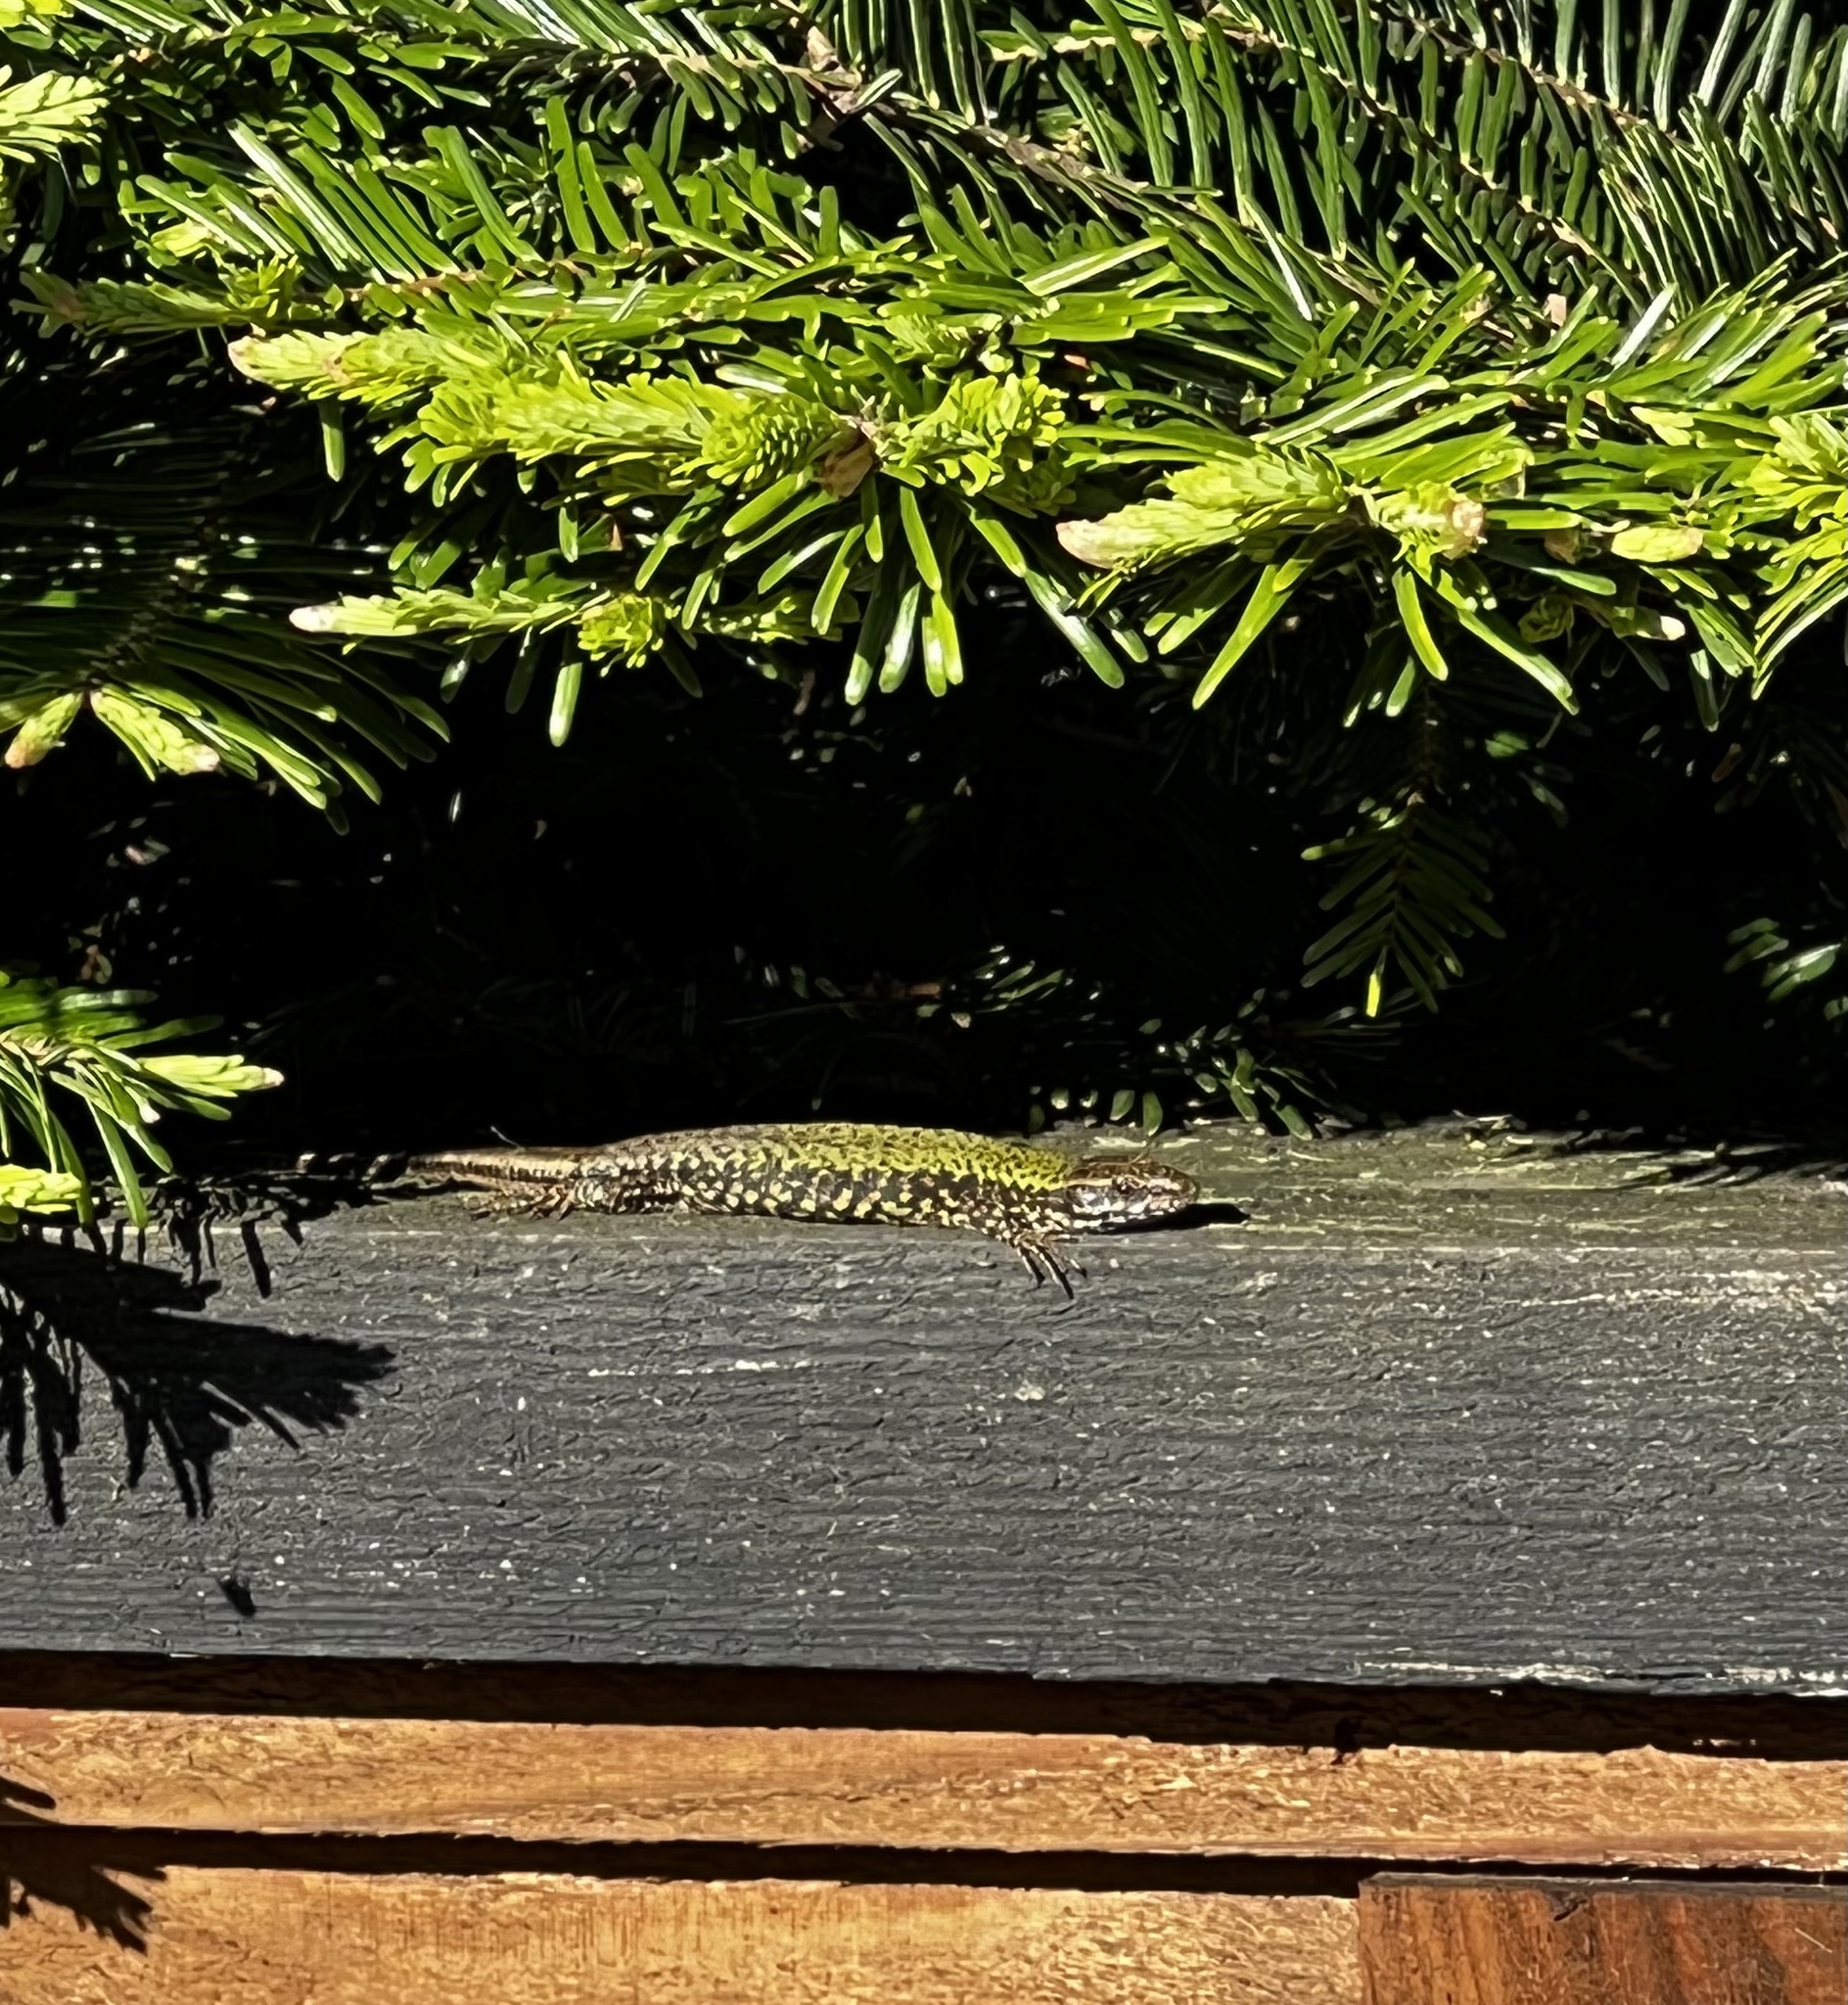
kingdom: Animalia
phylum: Chordata
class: Squamata
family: Lacertidae
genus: Podarcis
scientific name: Podarcis muralis
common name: Common wall lizard
